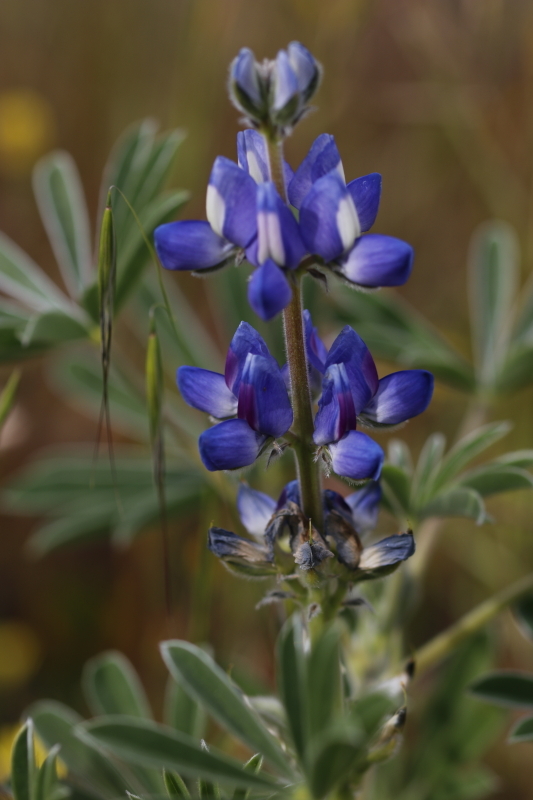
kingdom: Plantae
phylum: Tracheophyta
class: Magnoliopsida
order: Fabales
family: Fabaceae
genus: Lupinus
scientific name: Lupinus cosentinii
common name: Hairy blue lupin
